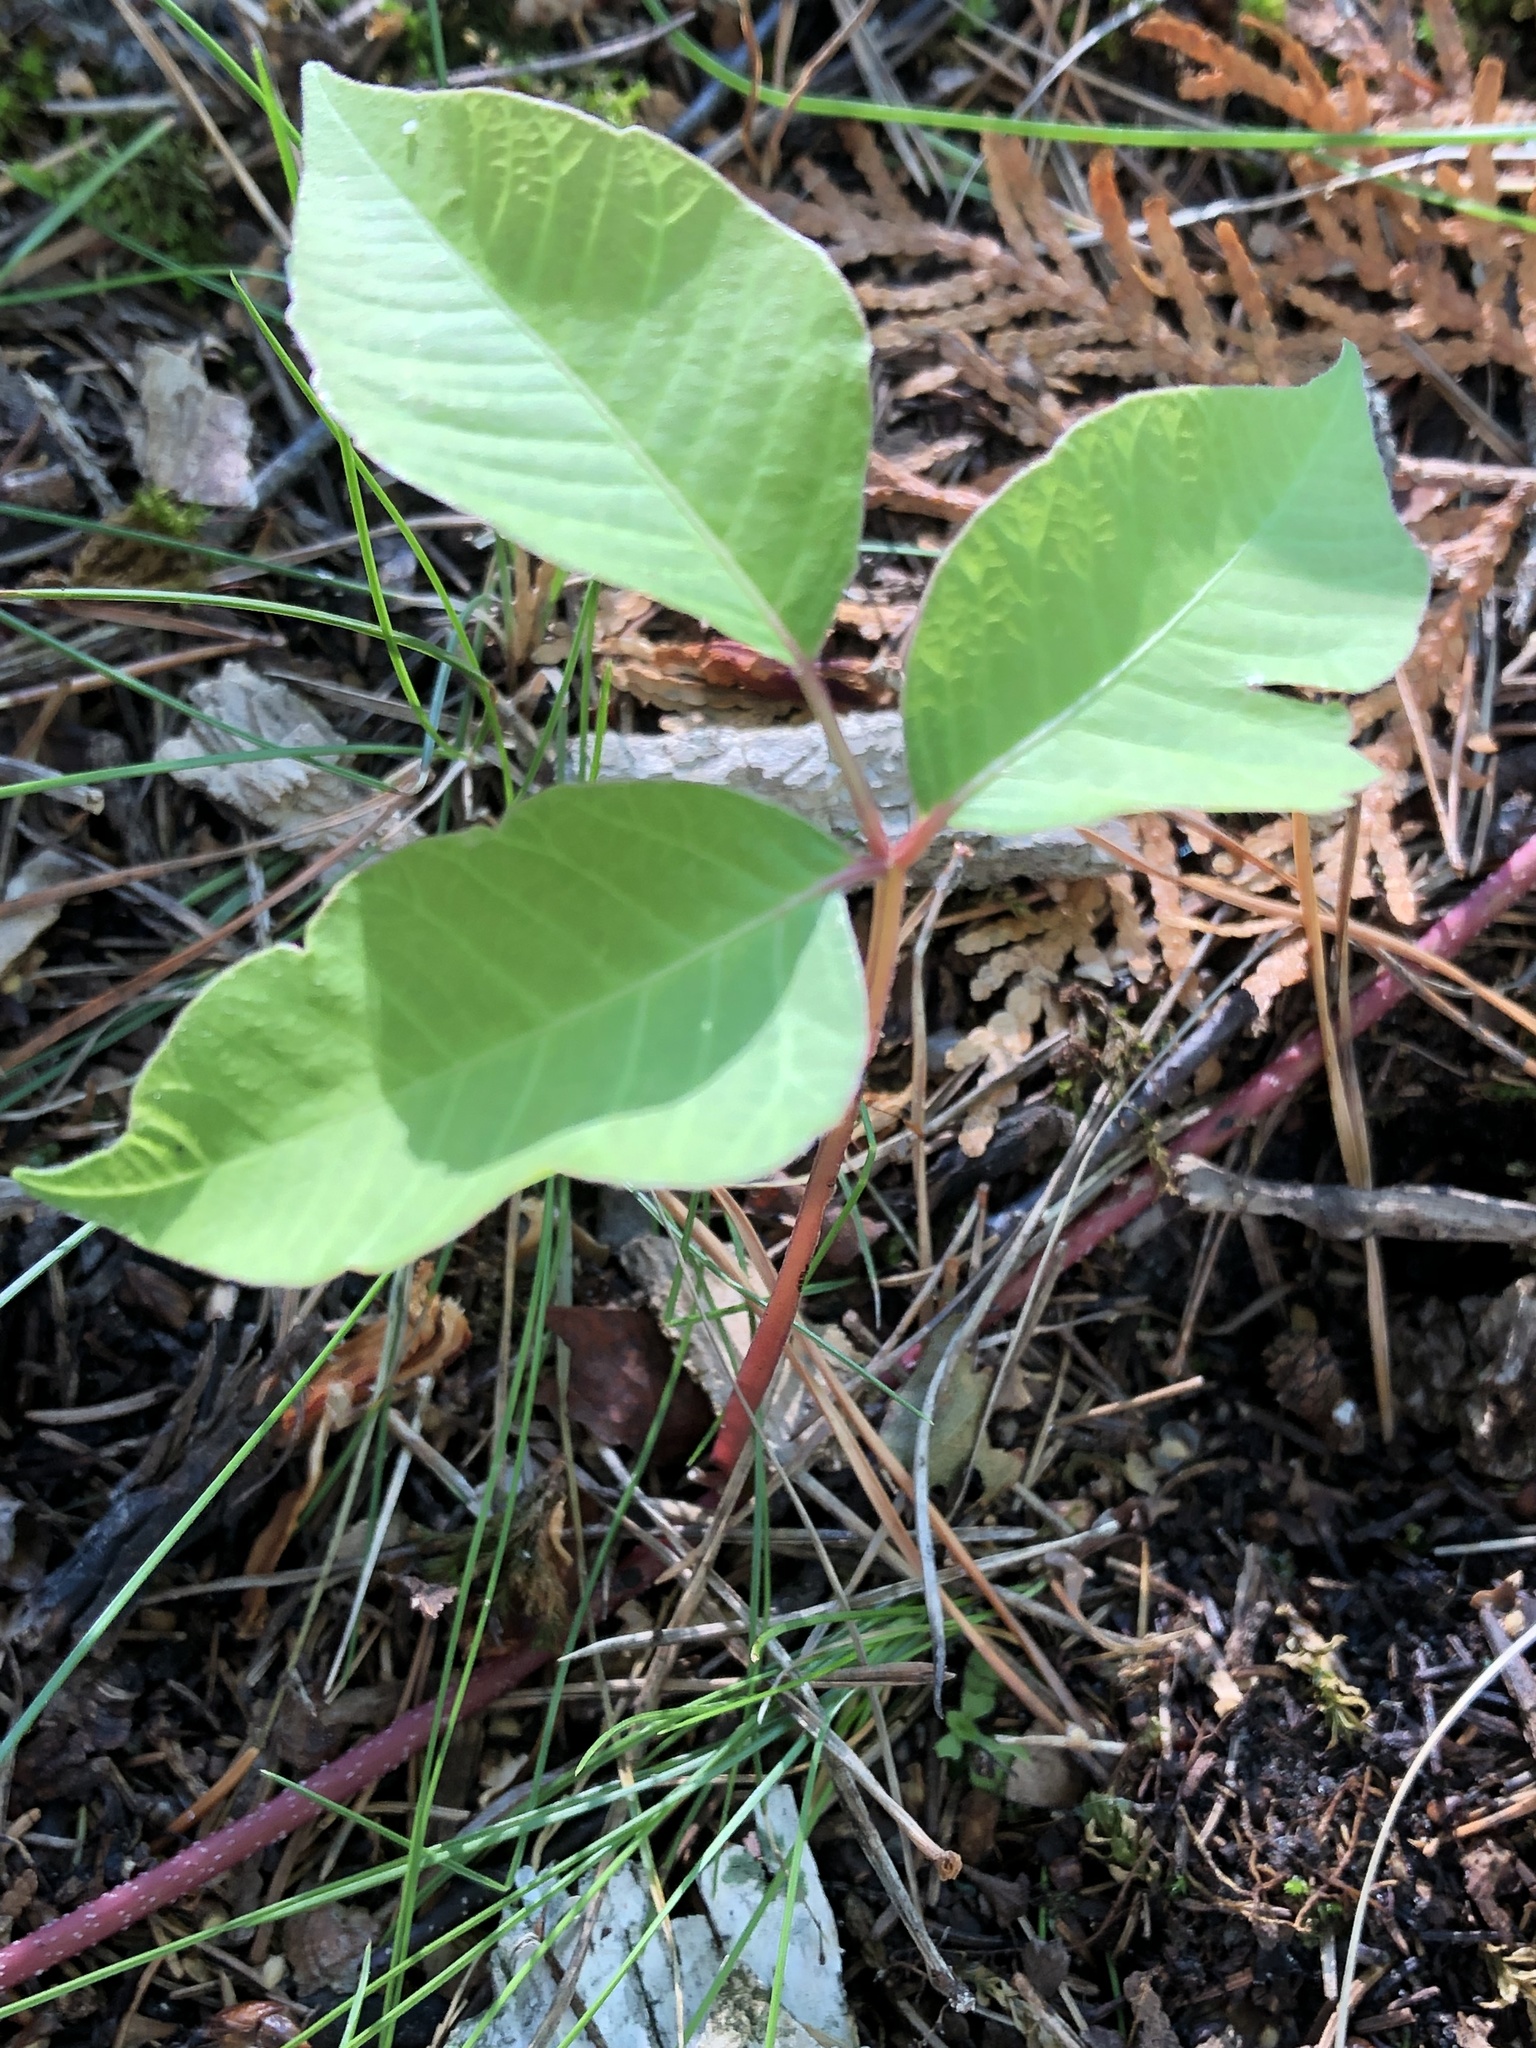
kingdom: Plantae
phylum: Tracheophyta
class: Magnoliopsida
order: Sapindales
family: Anacardiaceae
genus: Toxicodendron
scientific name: Toxicodendron rydbergii
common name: Rydberg's poison-ivy
